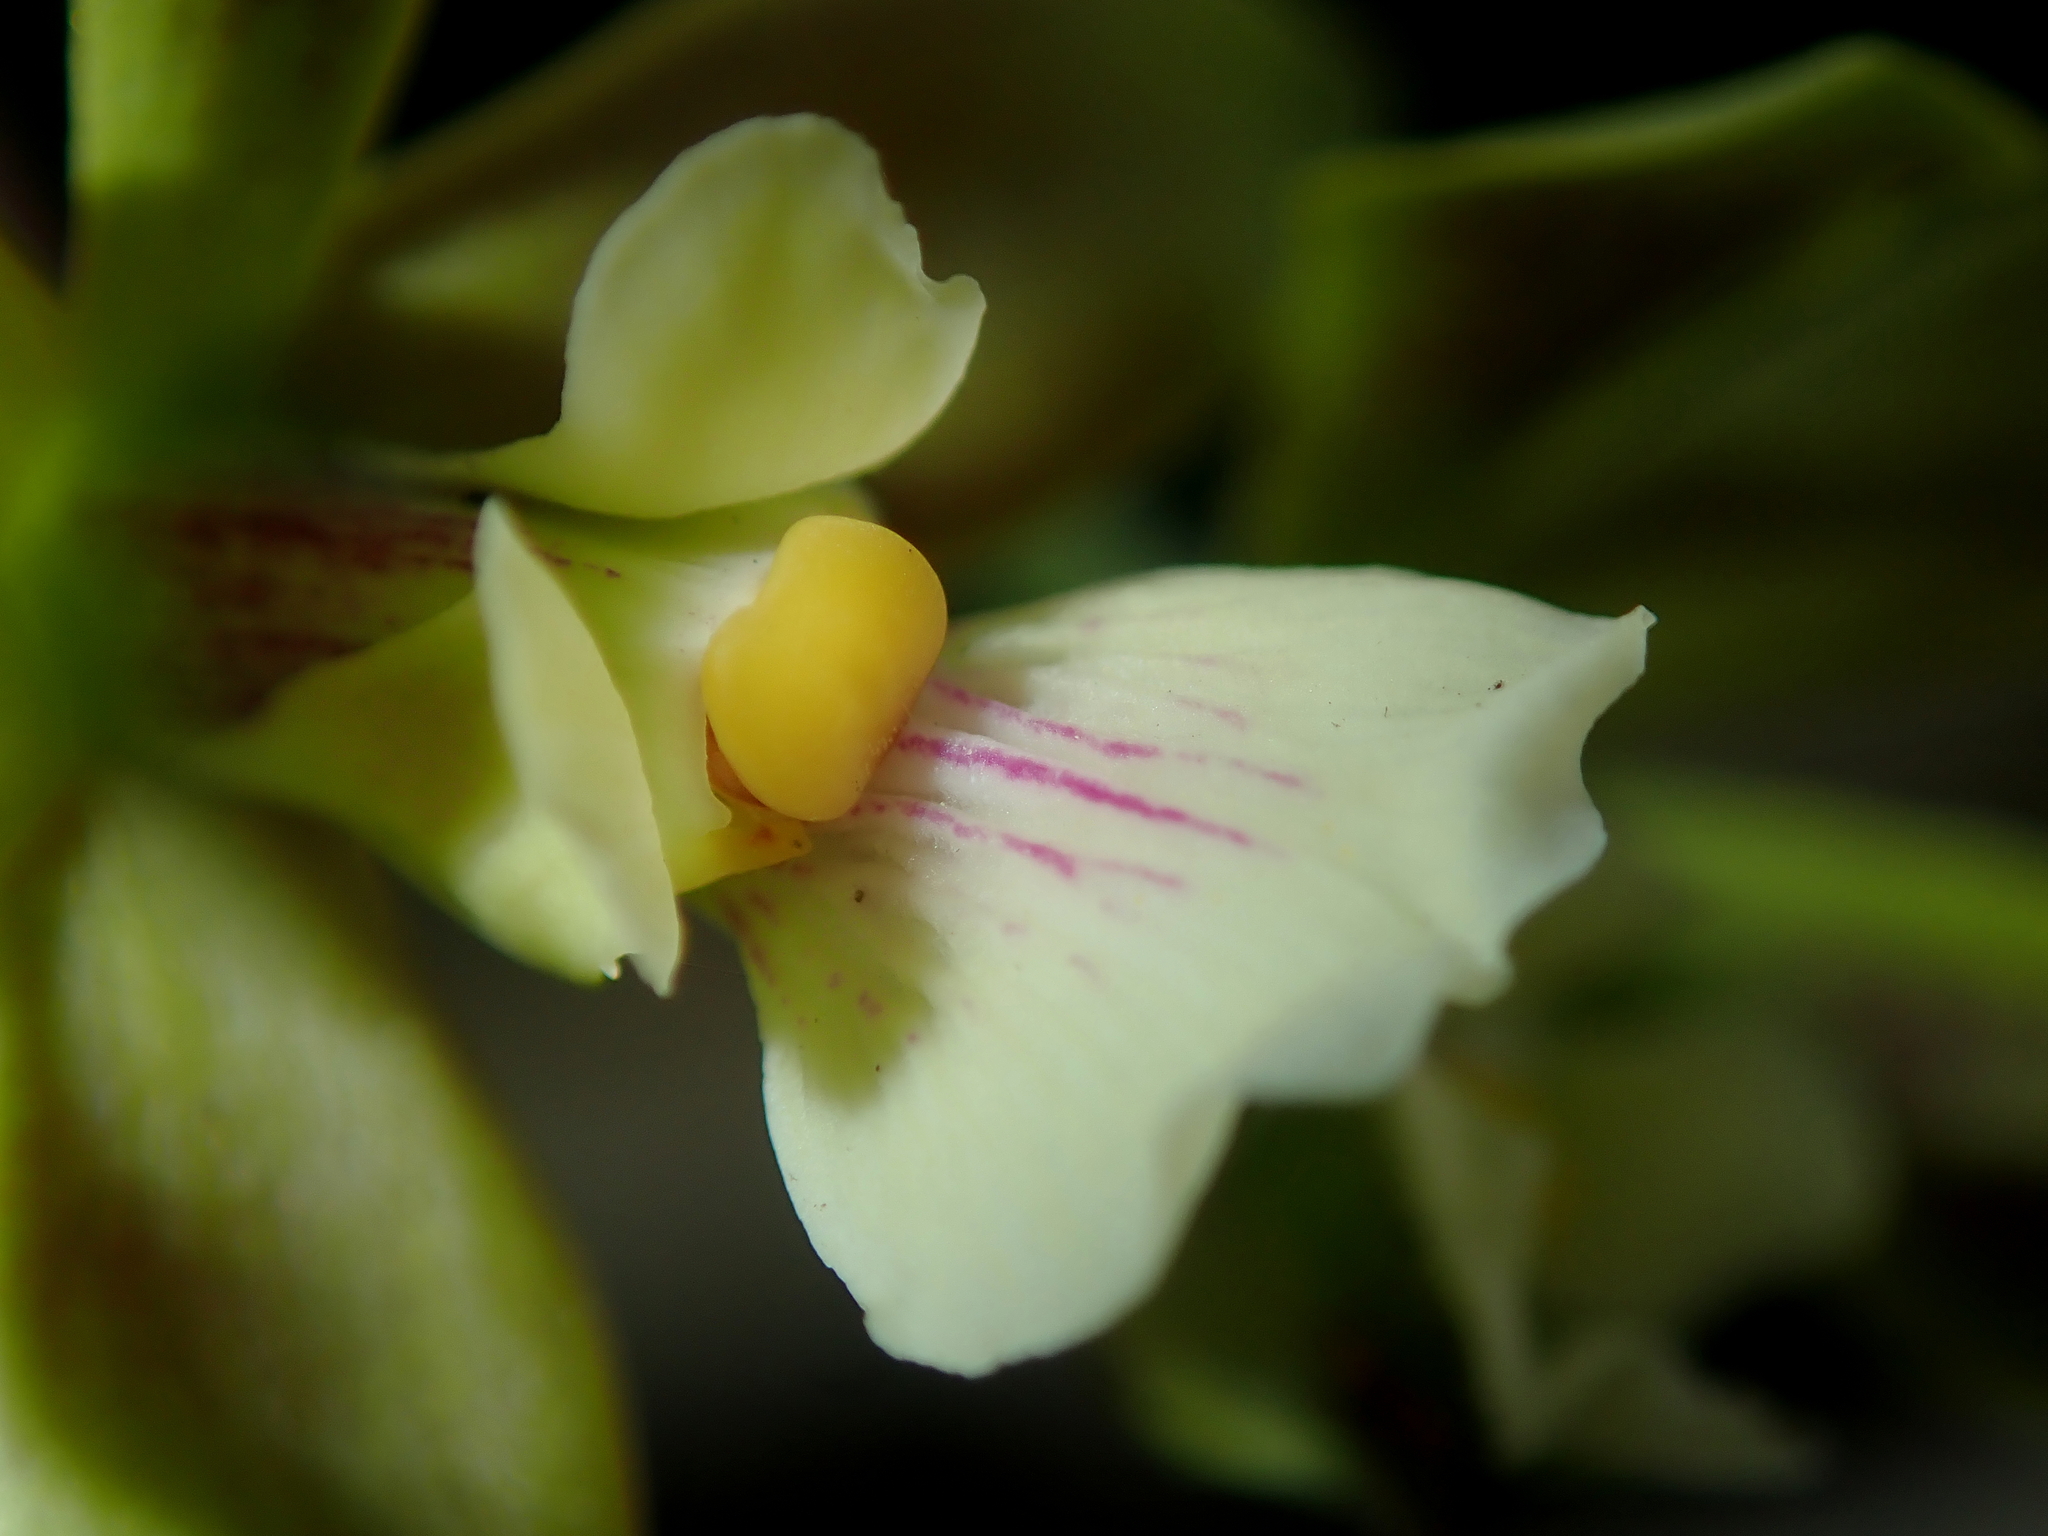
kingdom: Plantae
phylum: Tracheophyta
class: Liliopsida
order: Asparagales
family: Orchidaceae
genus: Encyclia
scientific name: Encyclia patens
